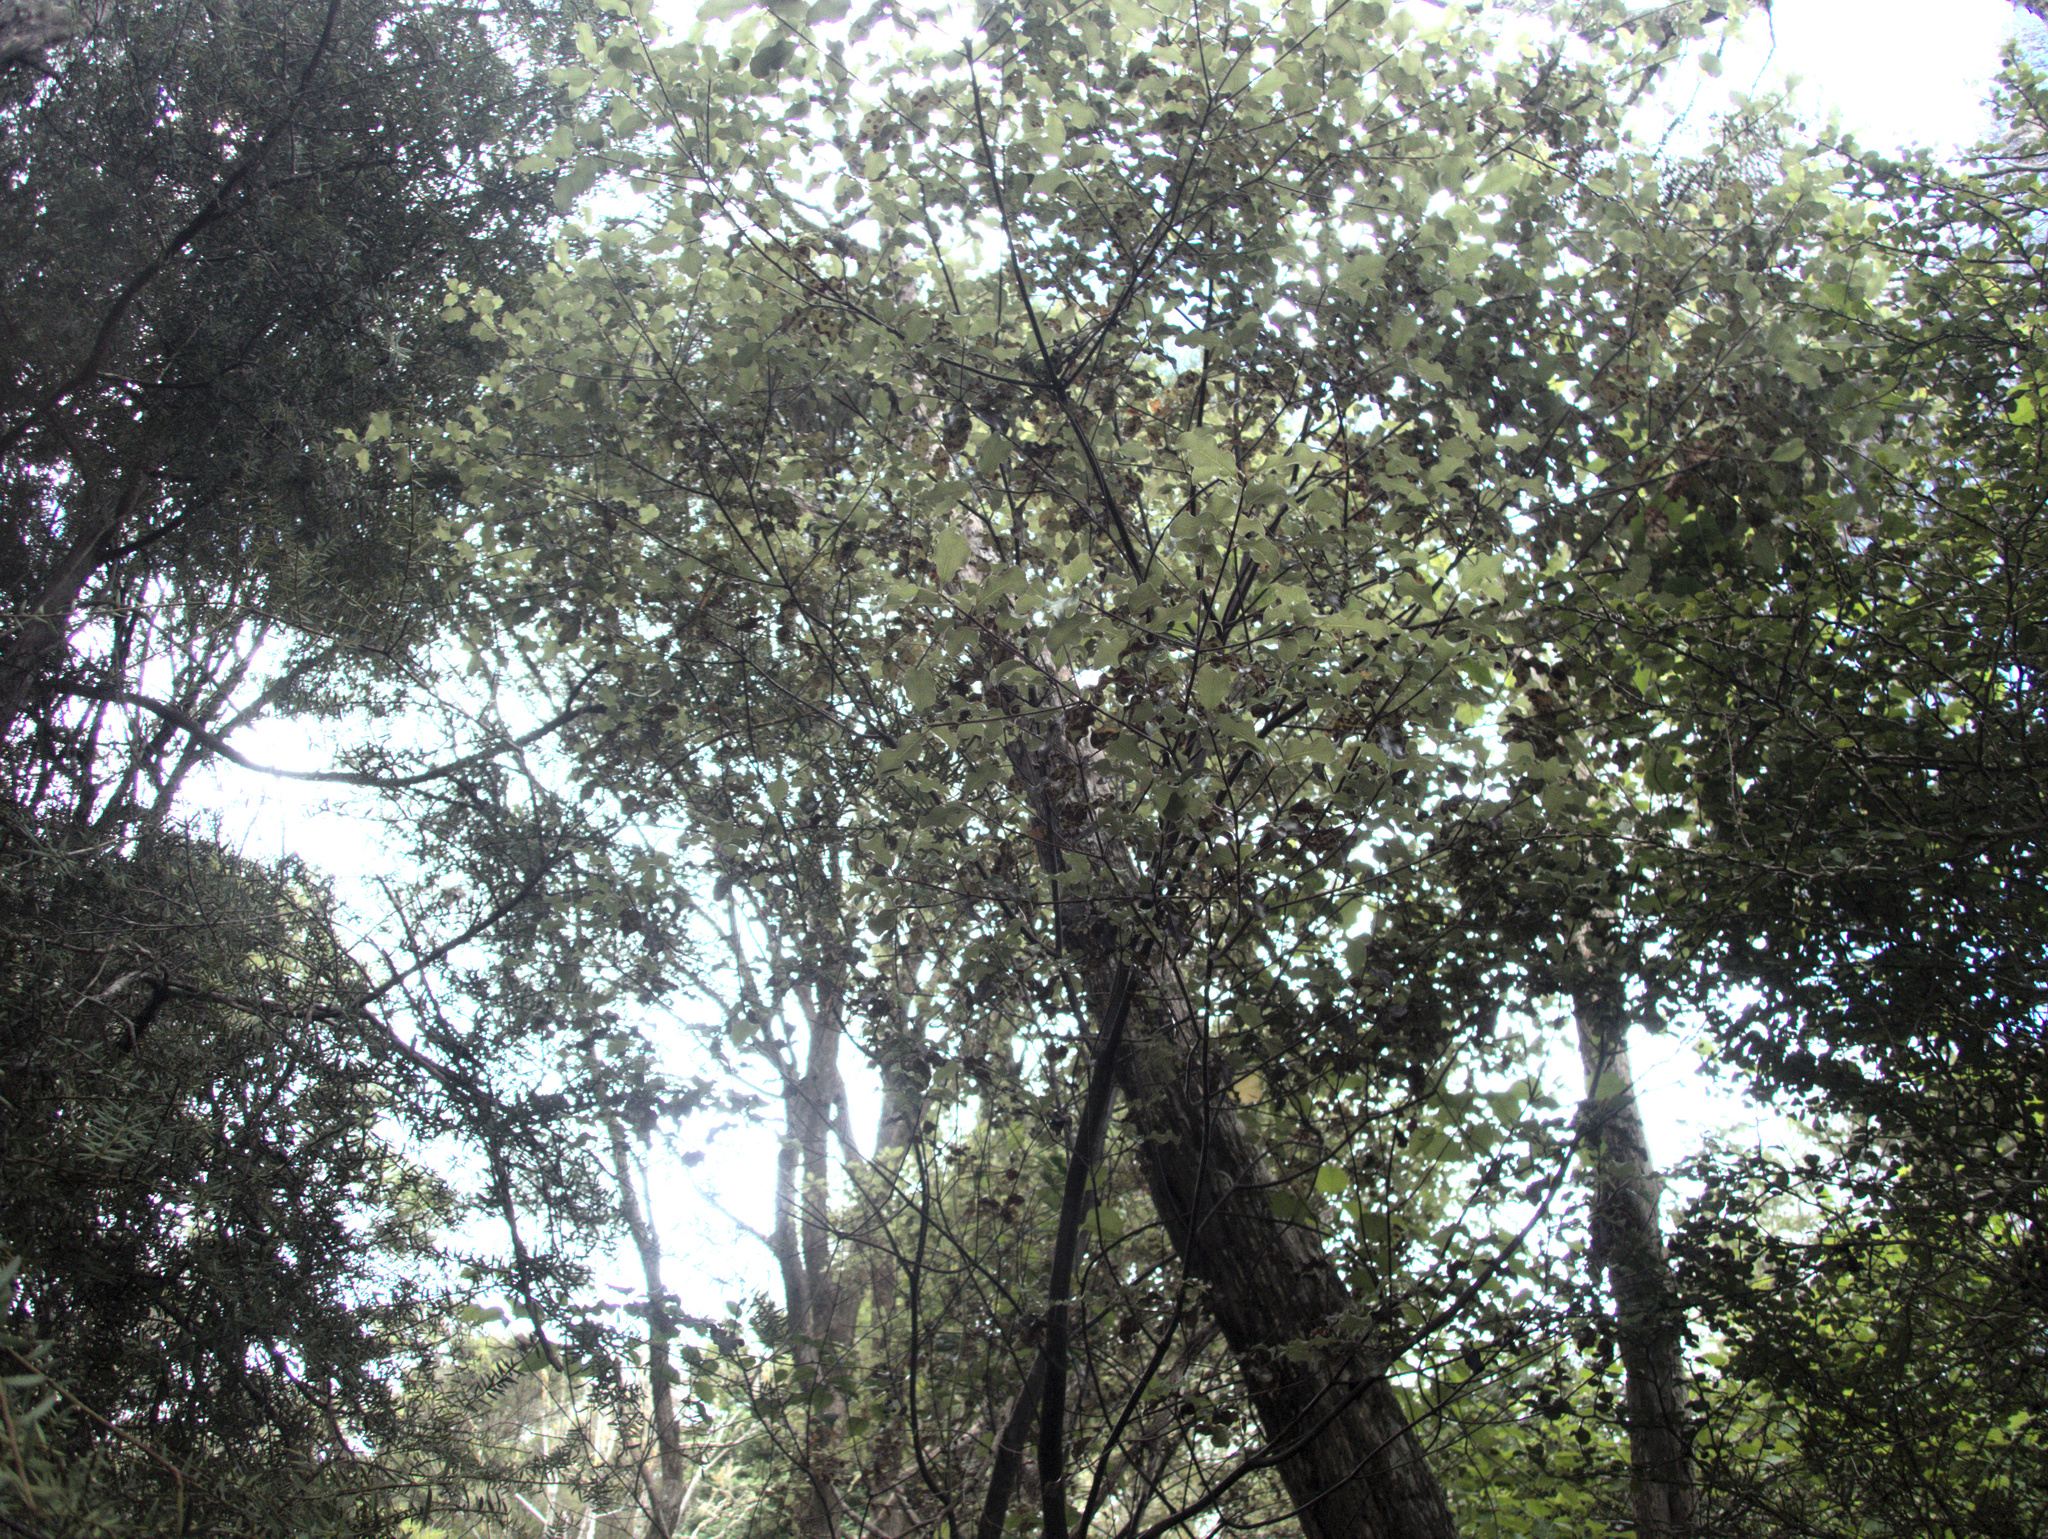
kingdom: Plantae
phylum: Tracheophyta
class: Magnoliopsida
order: Apiales
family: Pittosporaceae
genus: Pittosporum
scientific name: Pittosporum tenuifolium
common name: Kohuhu
